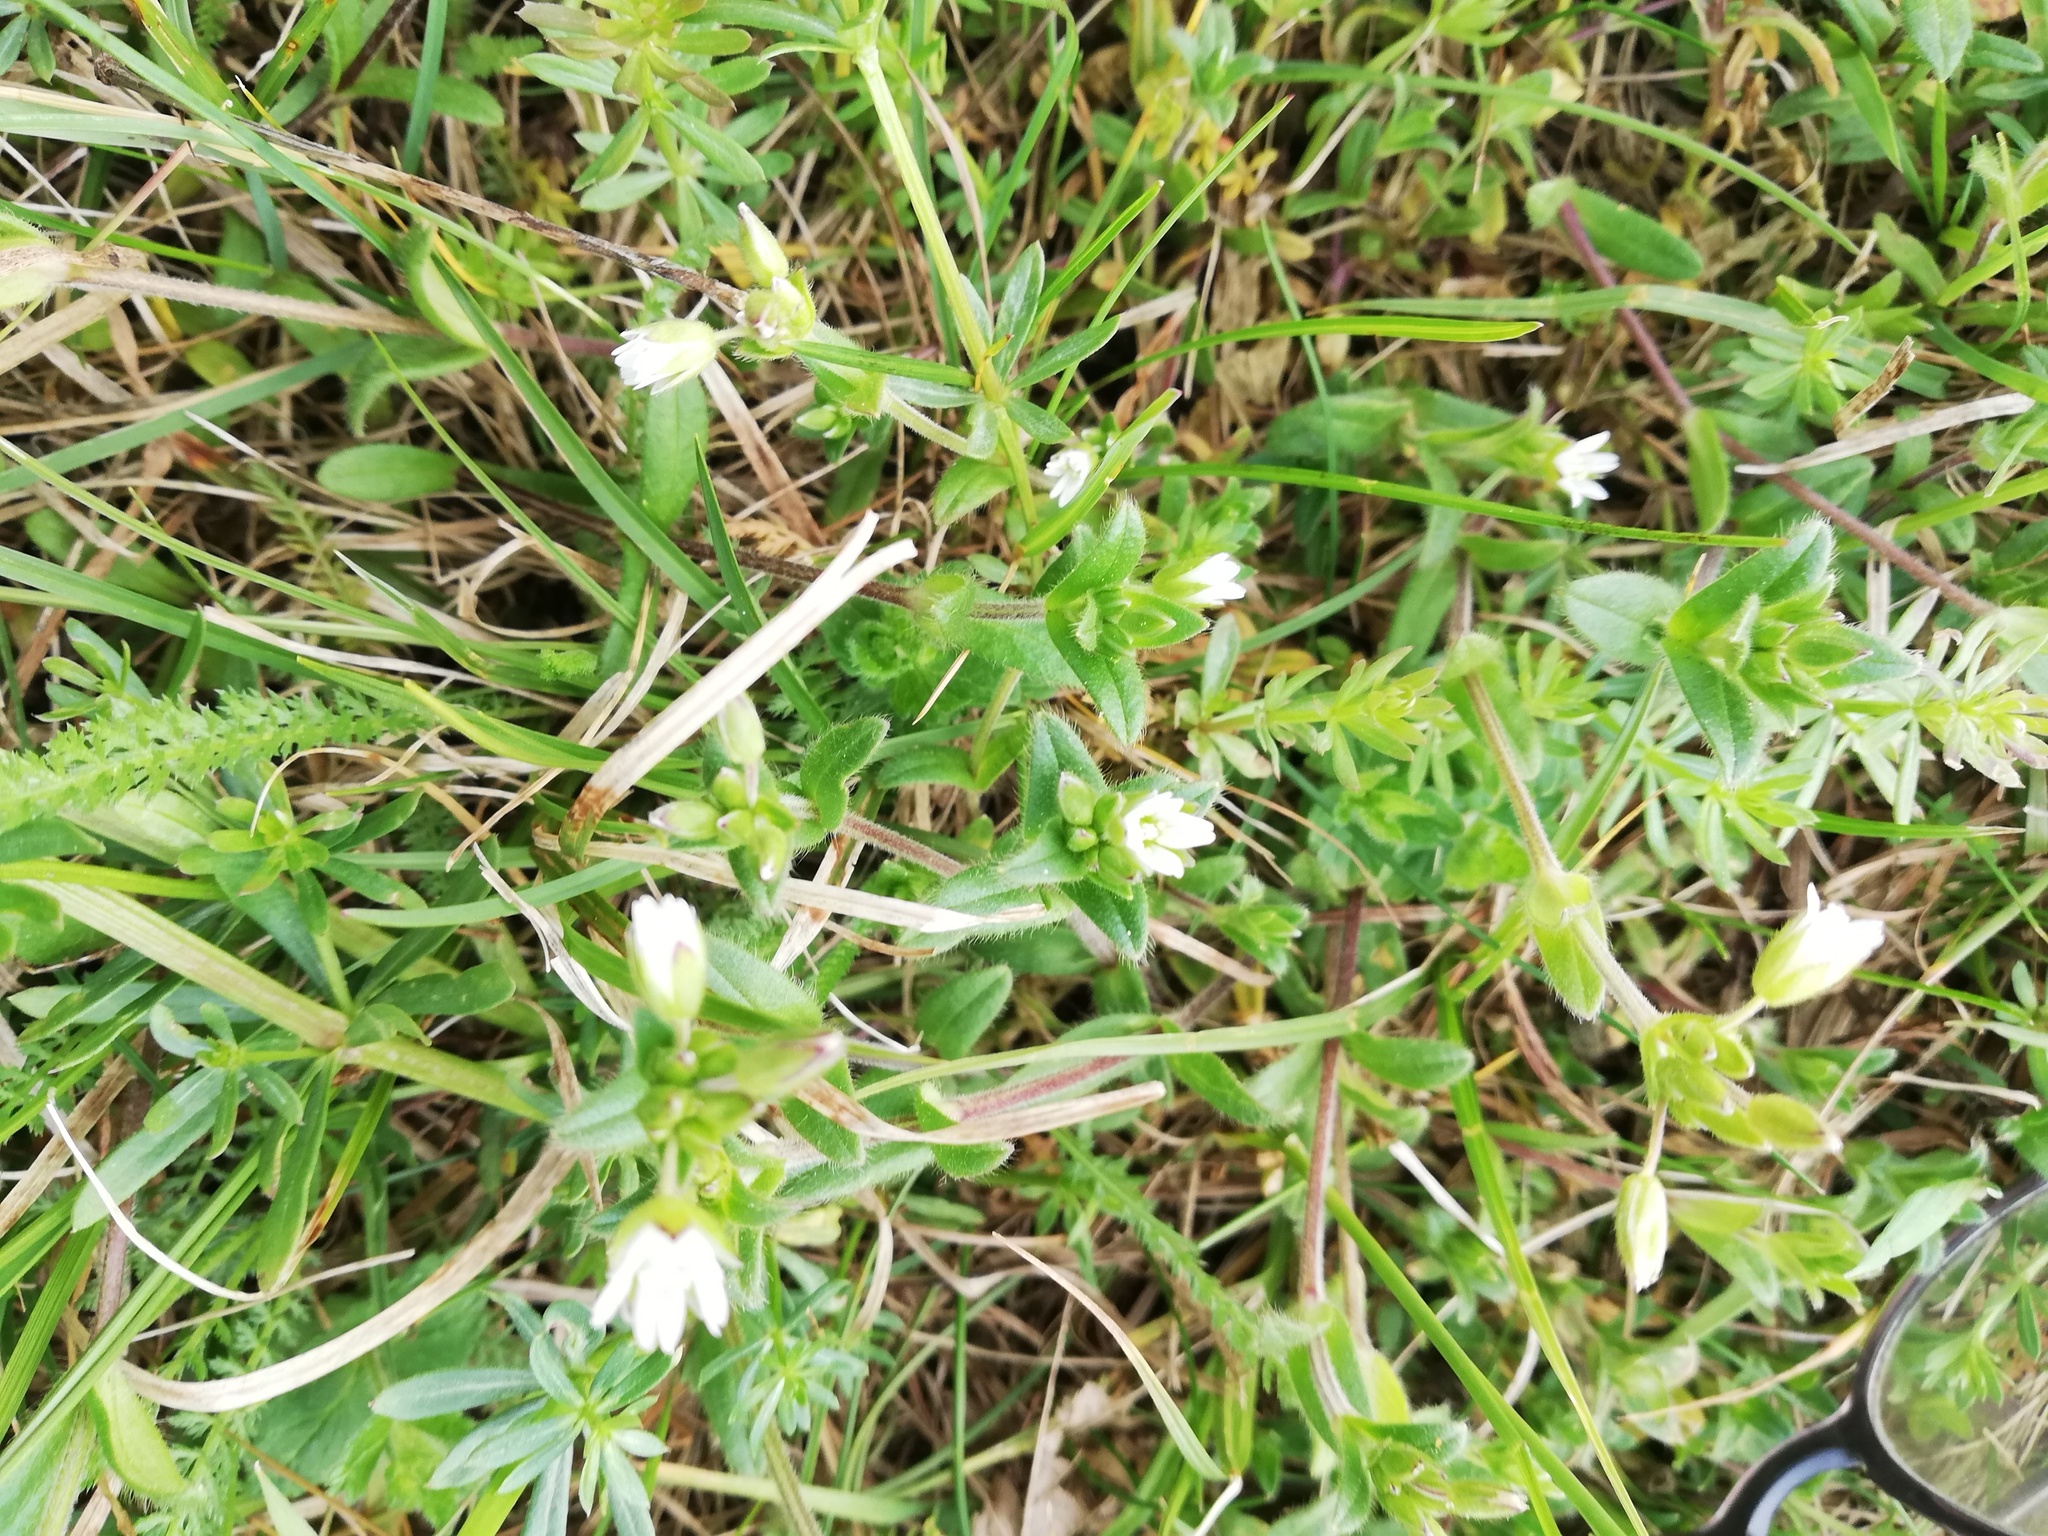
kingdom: Plantae
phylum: Tracheophyta
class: Magnoliopsida
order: Caryophyllales
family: Caryophyllaceae
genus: Cerastium
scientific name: Cerastium holosteoides
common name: Big chickweed
